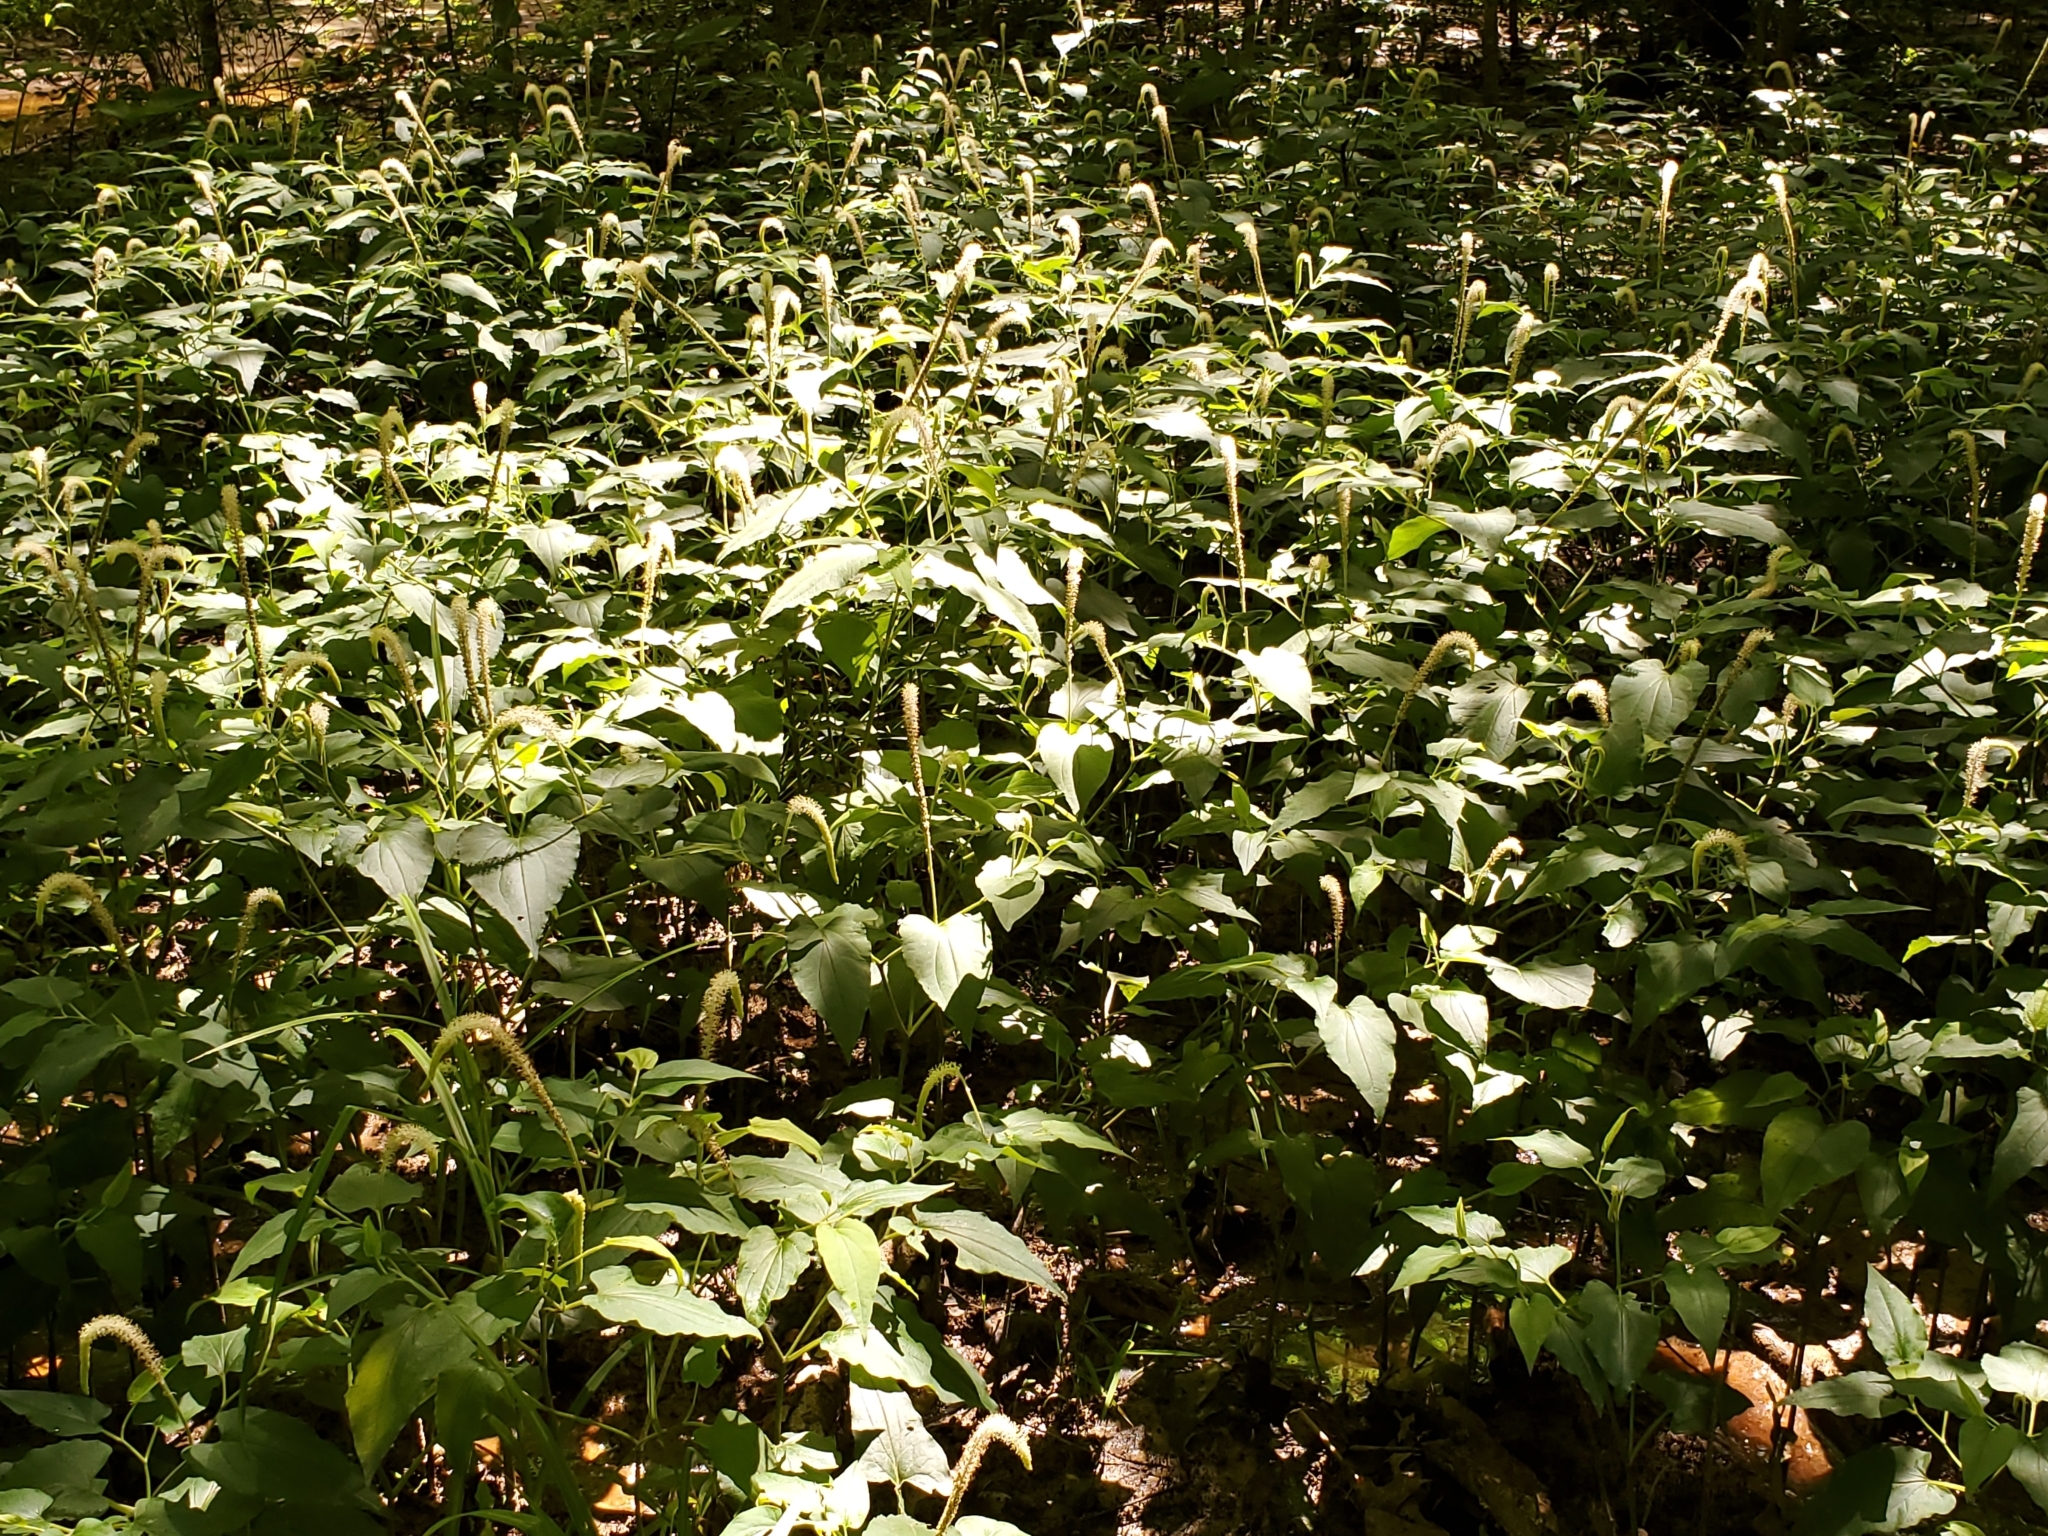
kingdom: Plantae
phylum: Tracheophyta
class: Magnoliopsida
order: Piperales
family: Saururaceae
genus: Saururus
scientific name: Saururus cernuus
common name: Lizard's-tail
